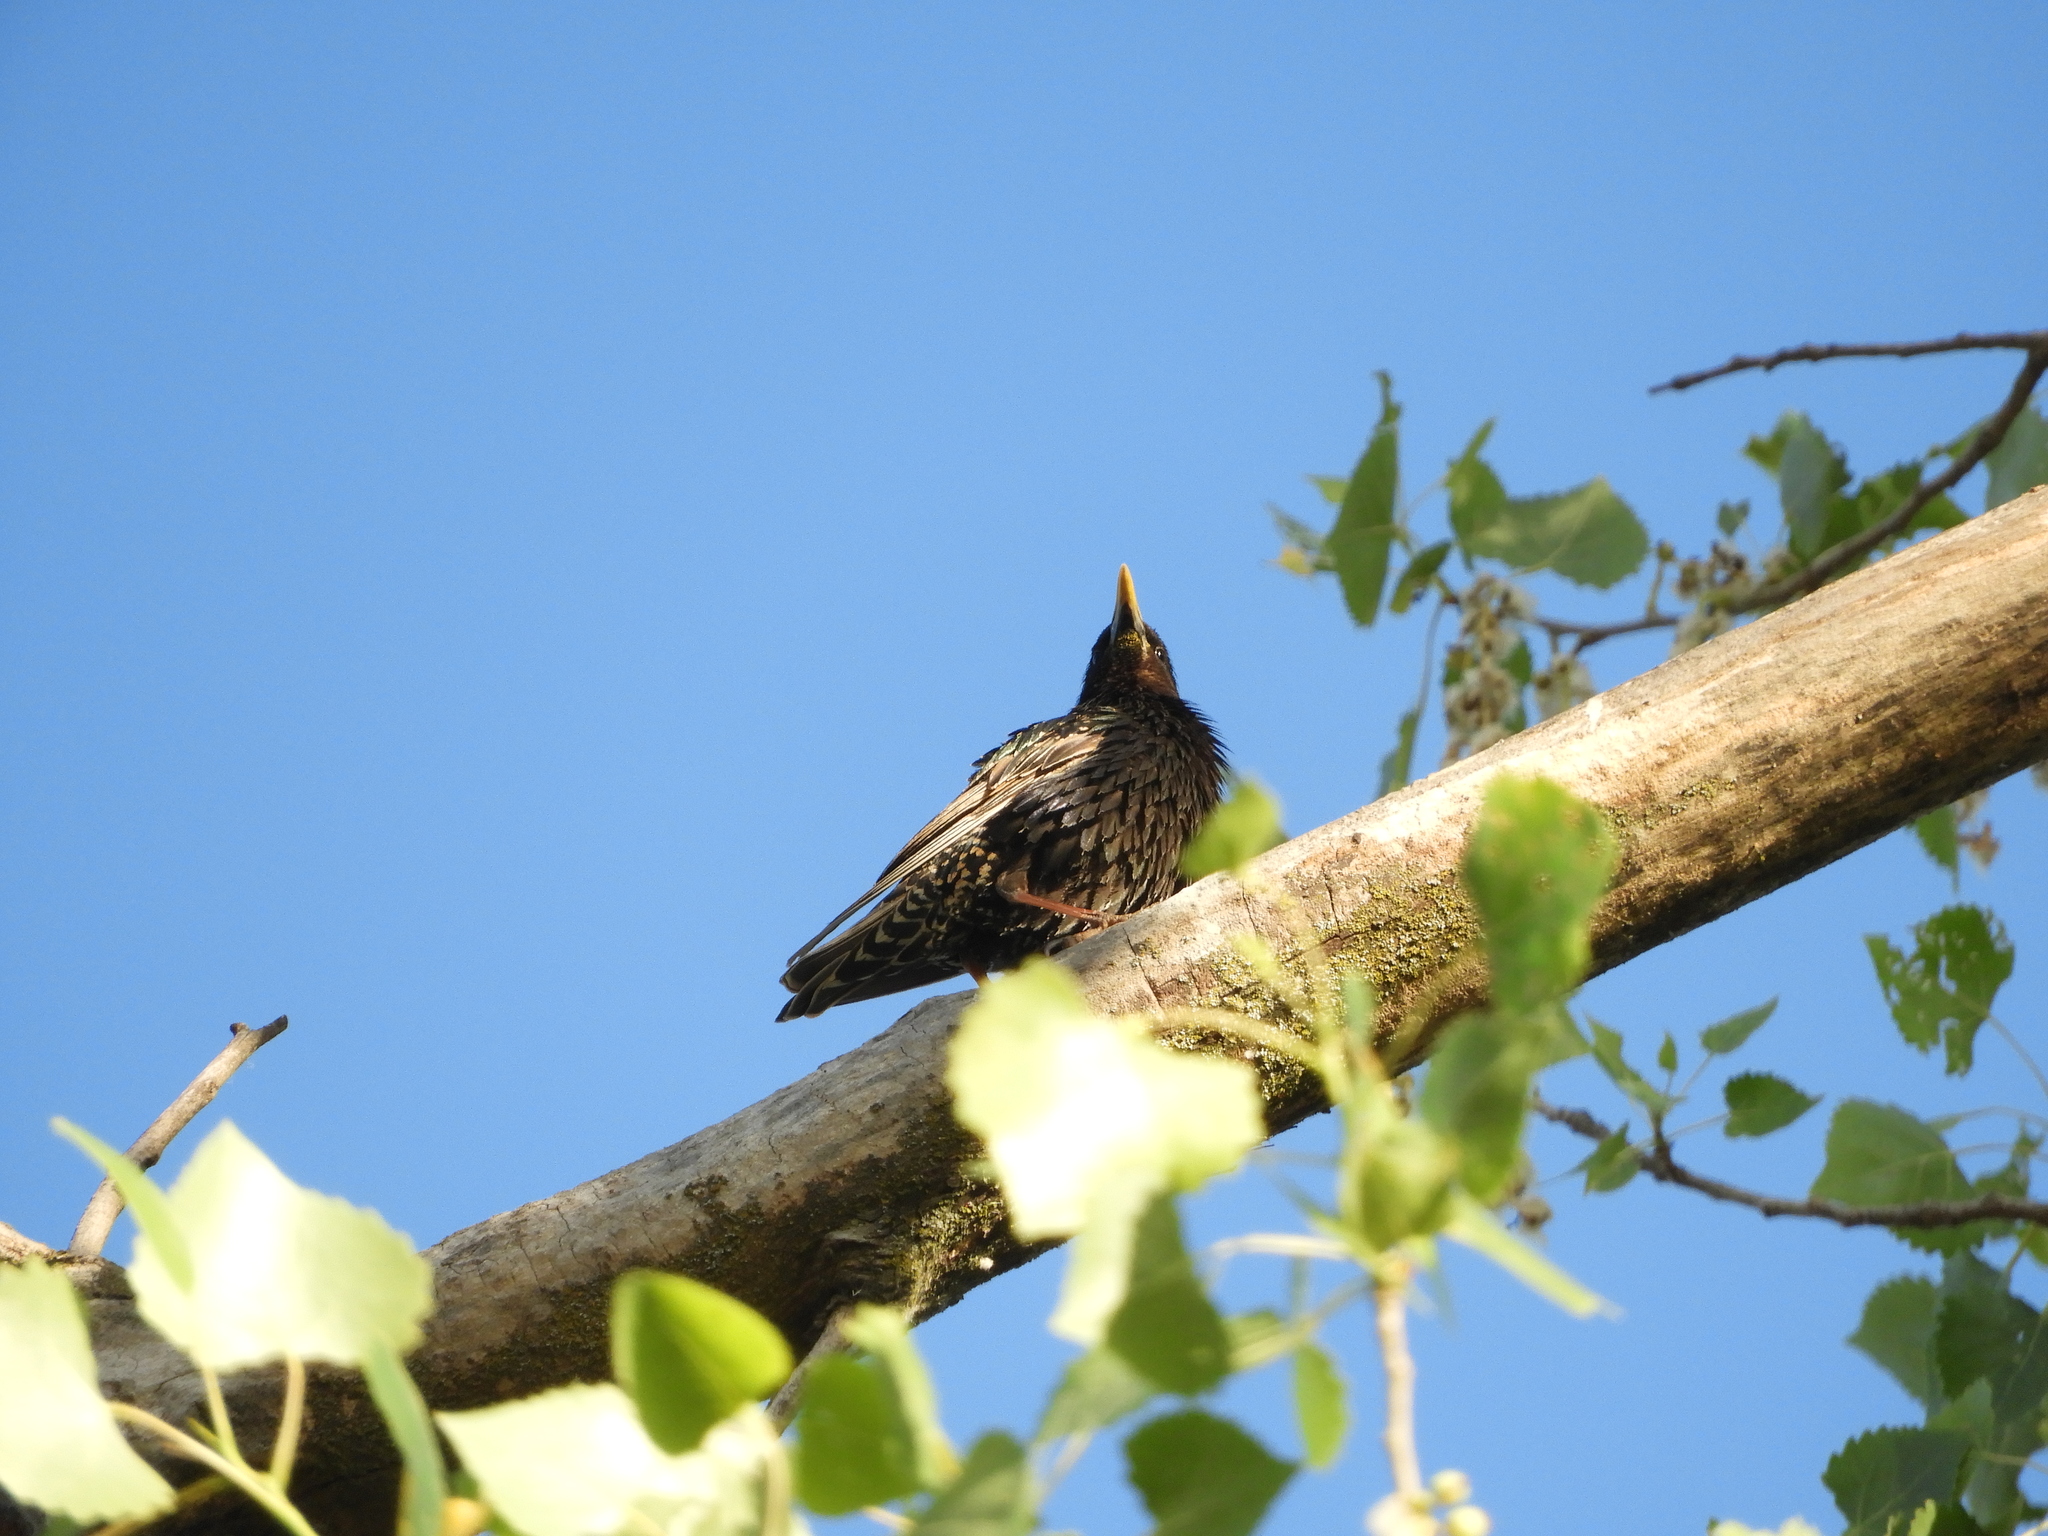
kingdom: Animalia
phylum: Chordata
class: Aves
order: Passeriformes
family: Sturnidae
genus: Sturnus
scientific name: Sturnus vulgaris
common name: Common starling
